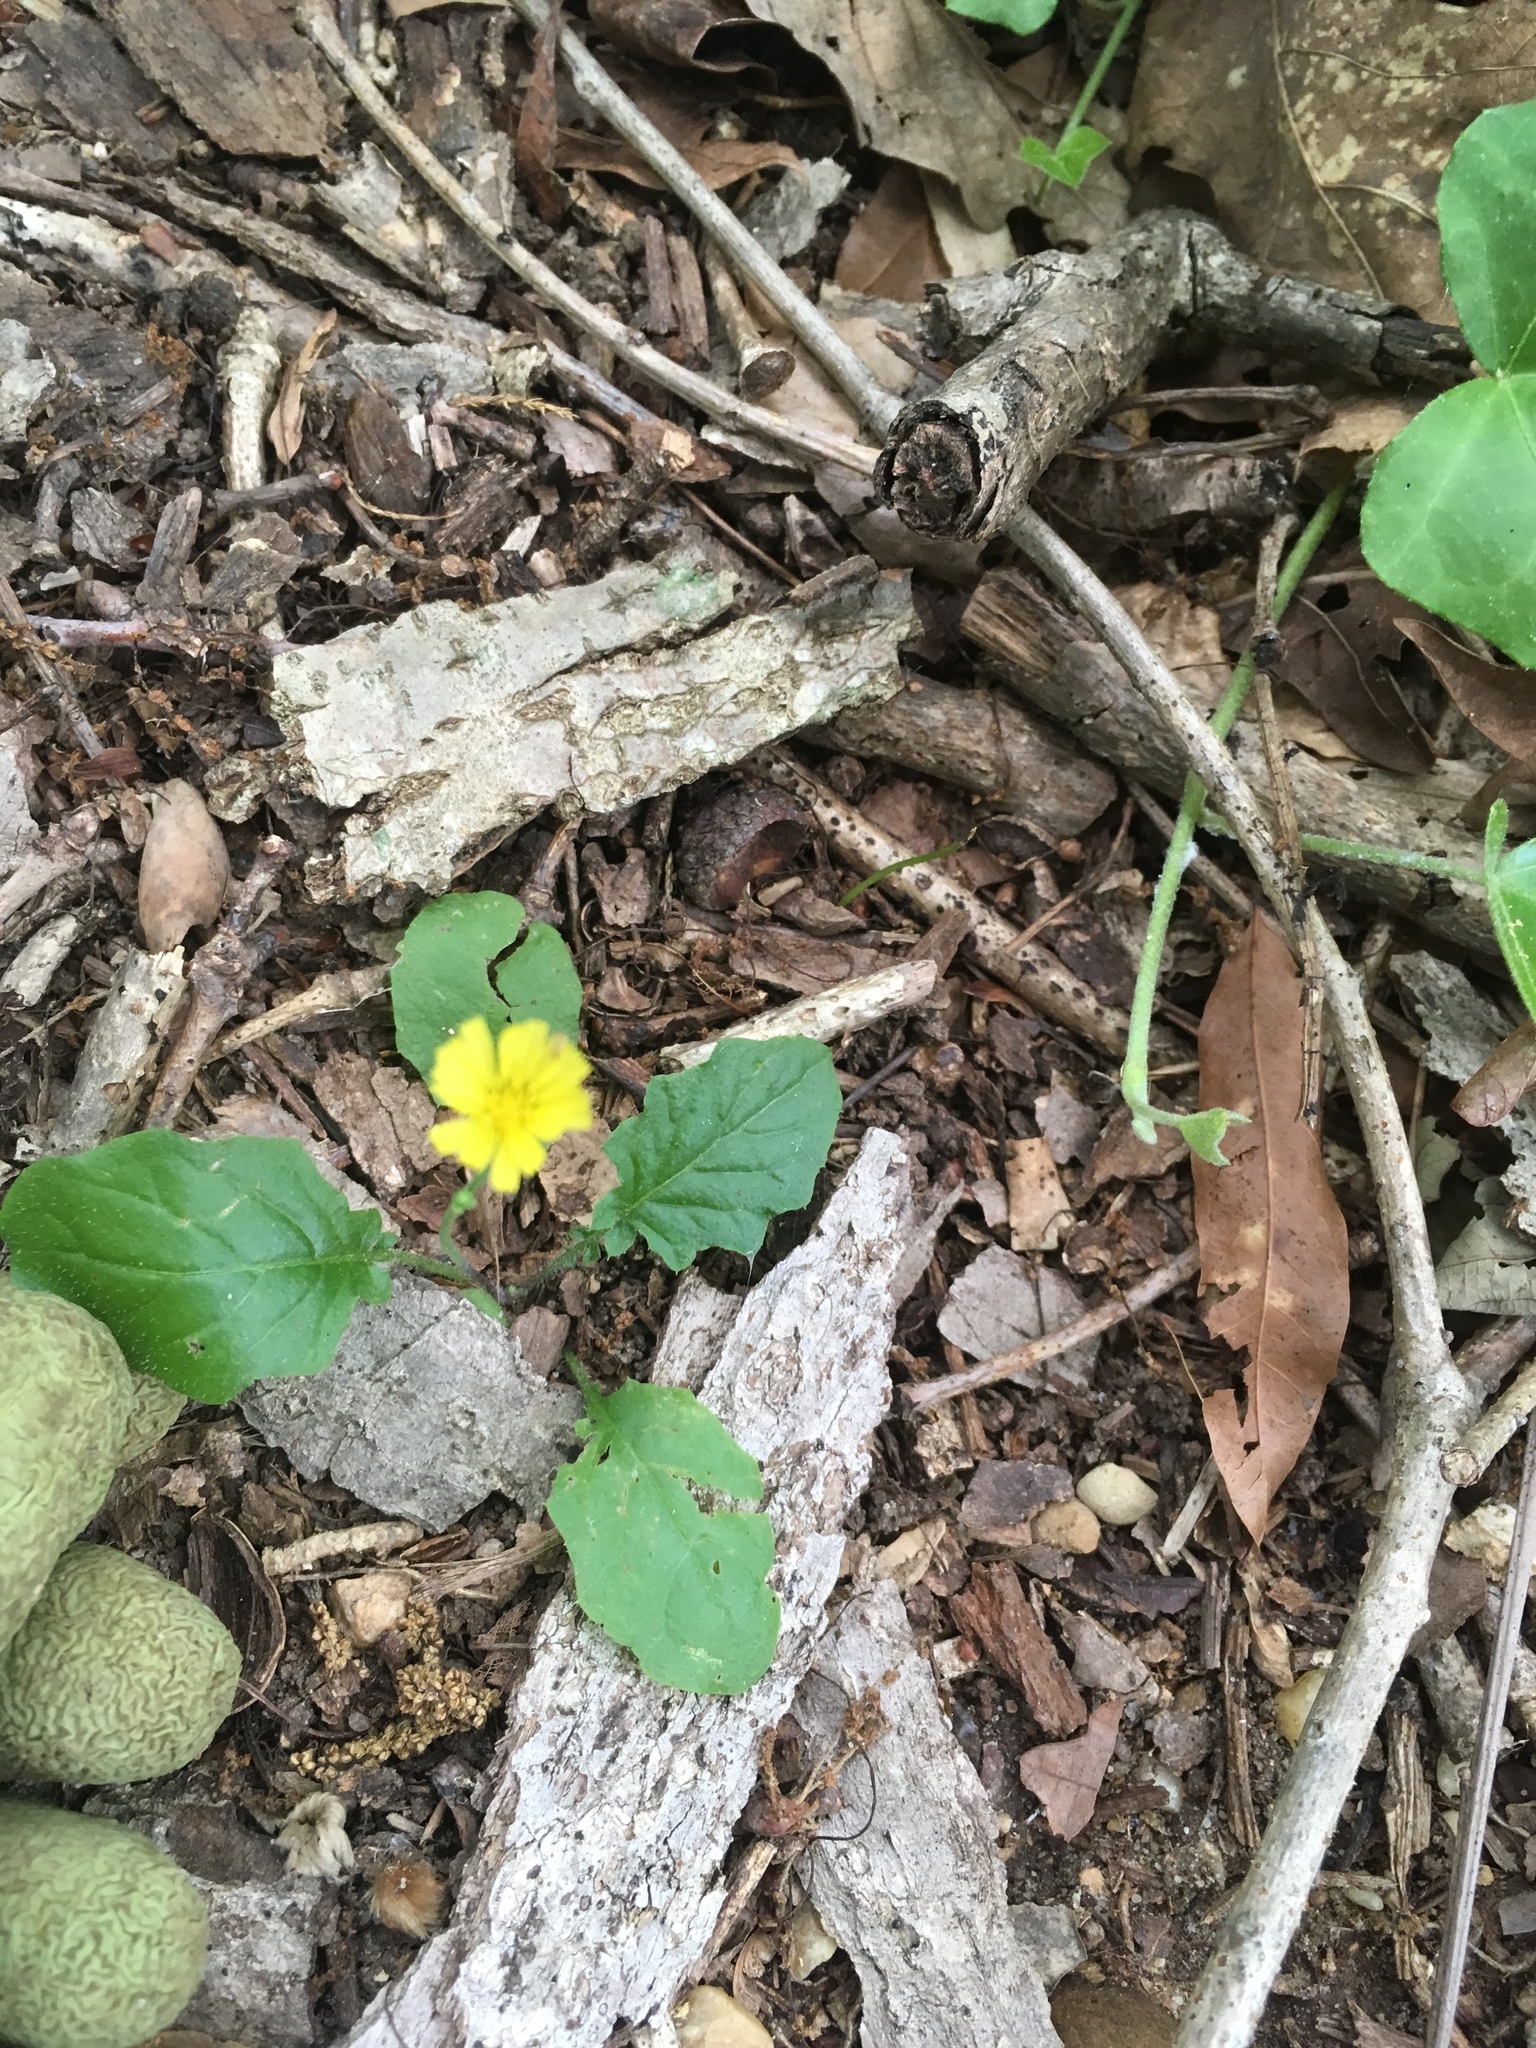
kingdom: Plantae
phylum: Tracheophyta
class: Magnoliopsida
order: Asterales
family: Asteraceae
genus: Hieracium
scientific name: Hieracium venosum
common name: Rattlesnake hawkweed
